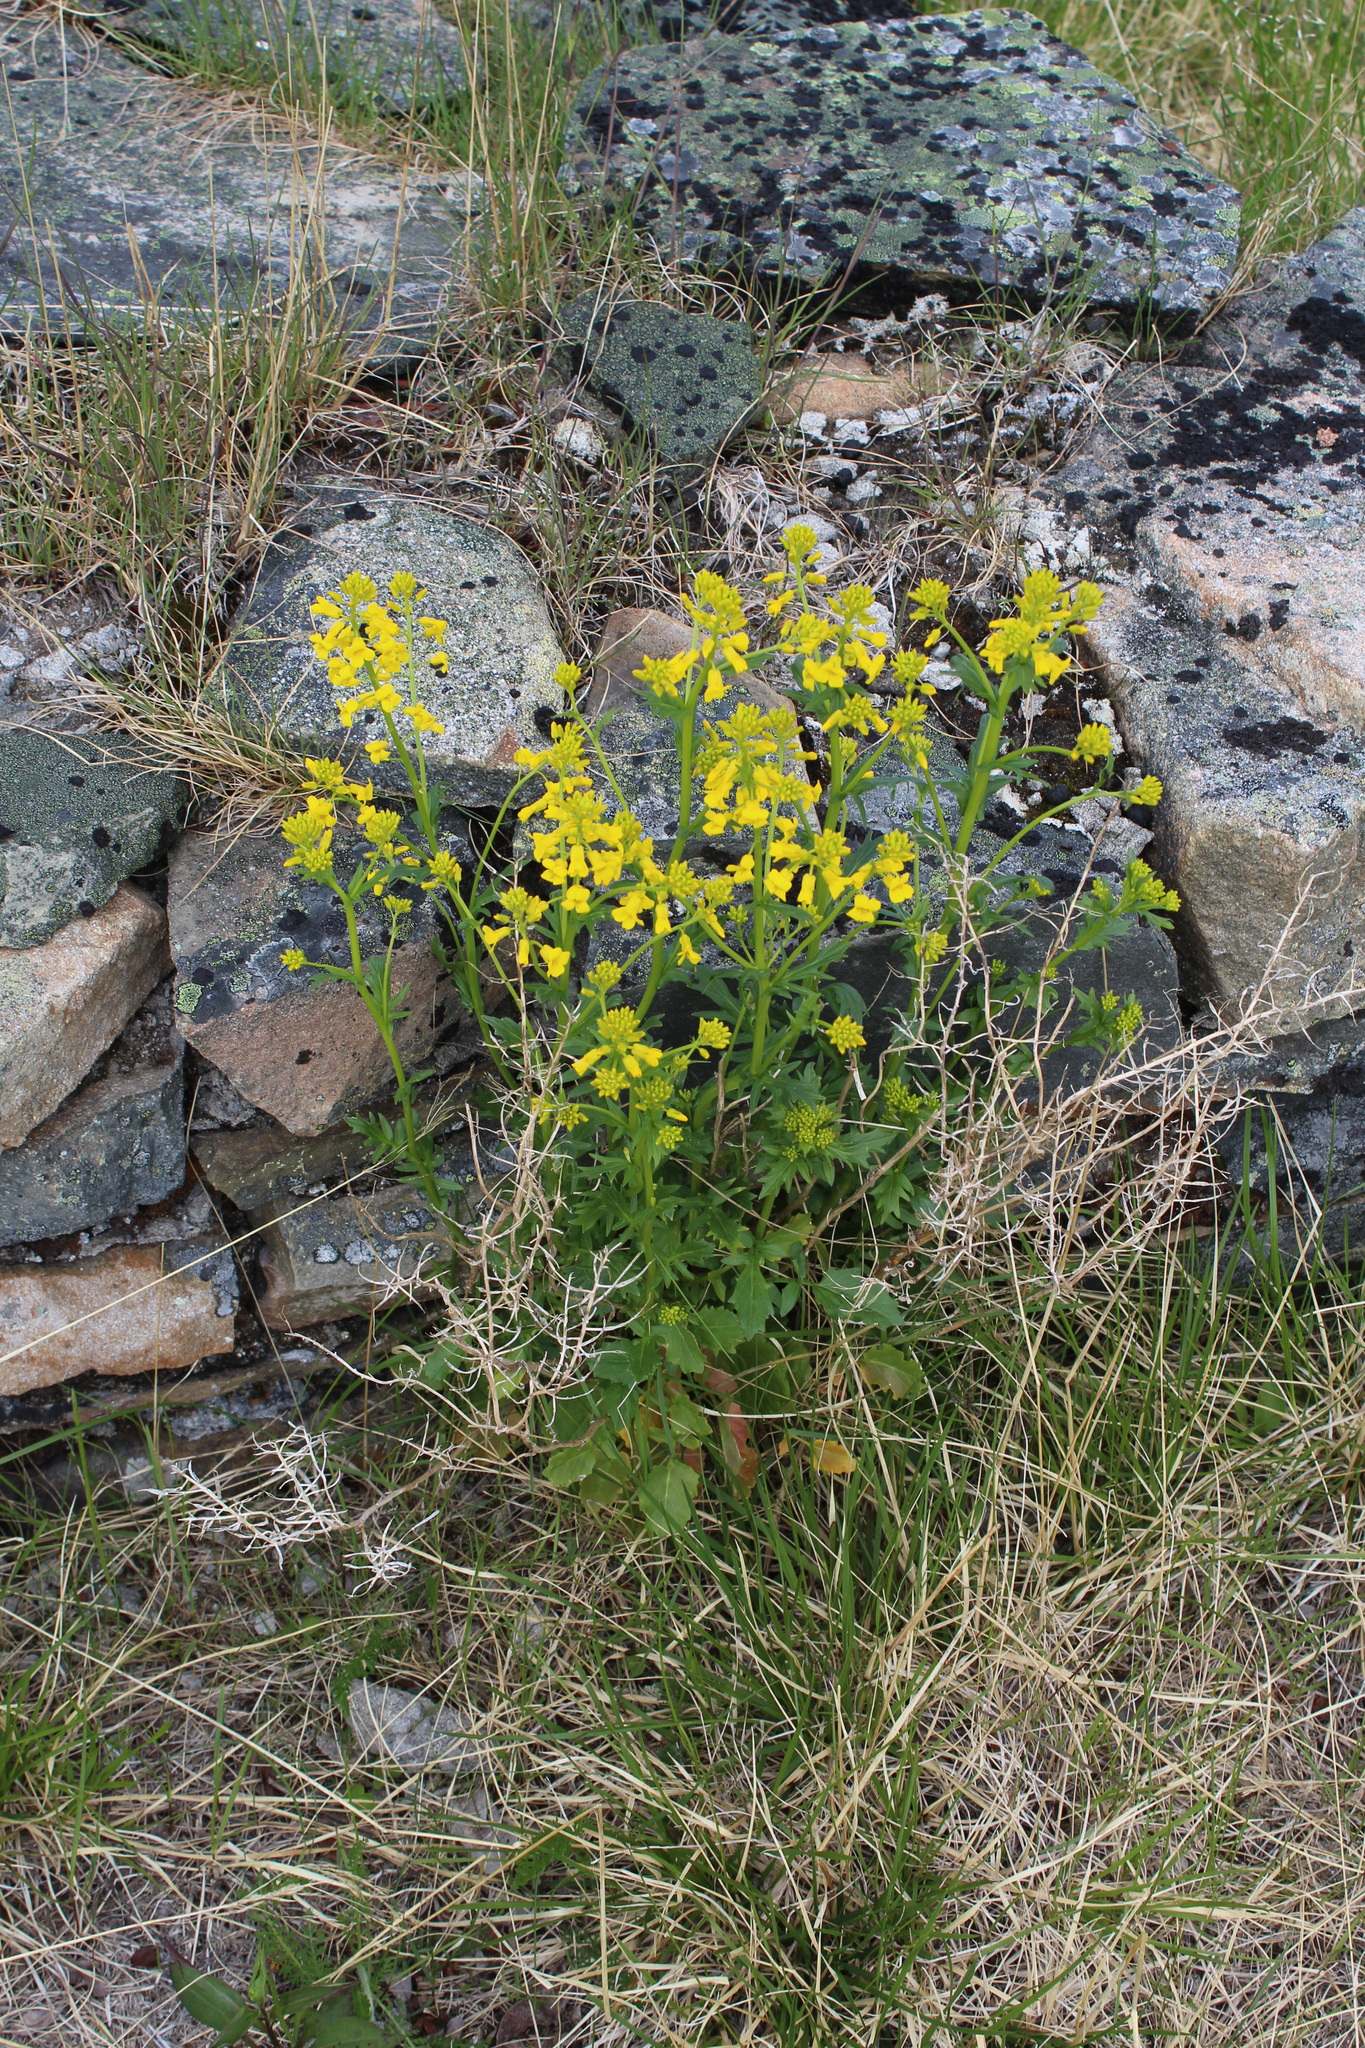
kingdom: Plantae
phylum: Tracheophyta
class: Magnoliopsida
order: Brassicales
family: Brassicaceae
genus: Barbarea
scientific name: Barbarea vulgaris
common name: Cressy-greens
